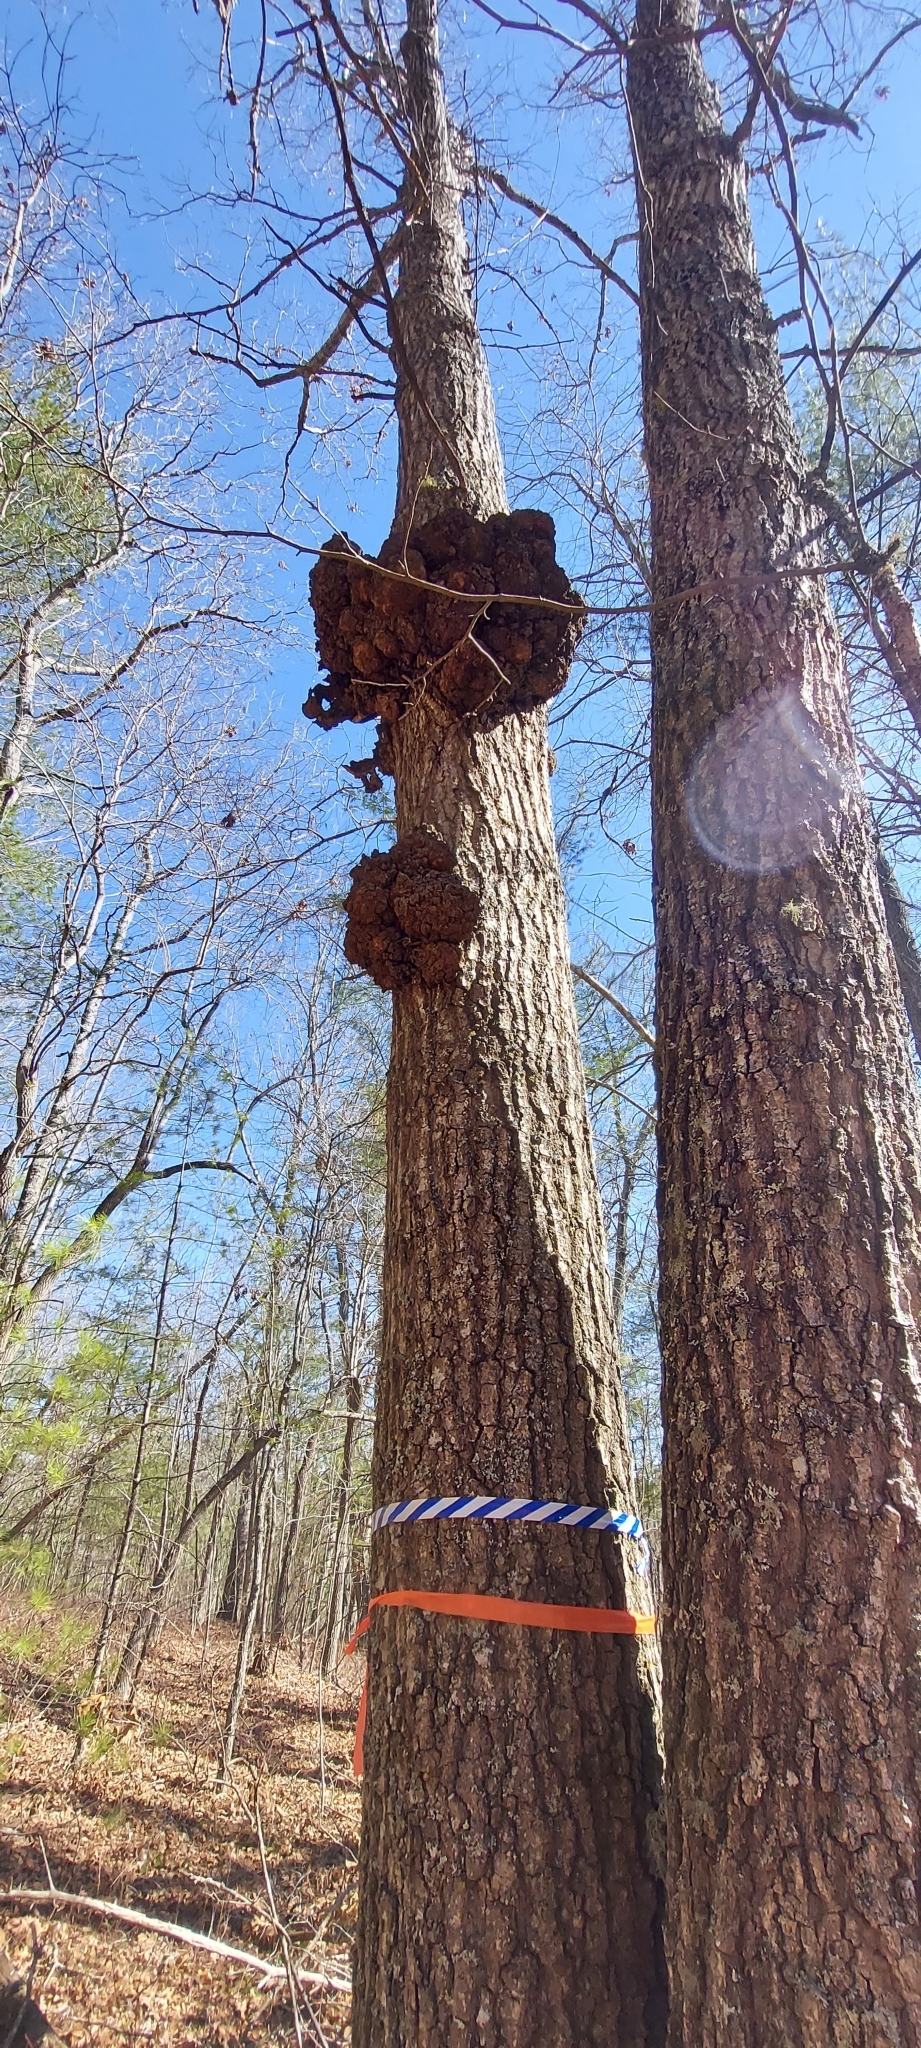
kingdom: Bacteria
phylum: Proteobacteria
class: Alphaproteobacteria
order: Rhizobiales
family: Rhizobiaceae
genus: Rhizobium
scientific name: Rhizobium Agrobacterium radiobacter
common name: Bacterial crown gall
